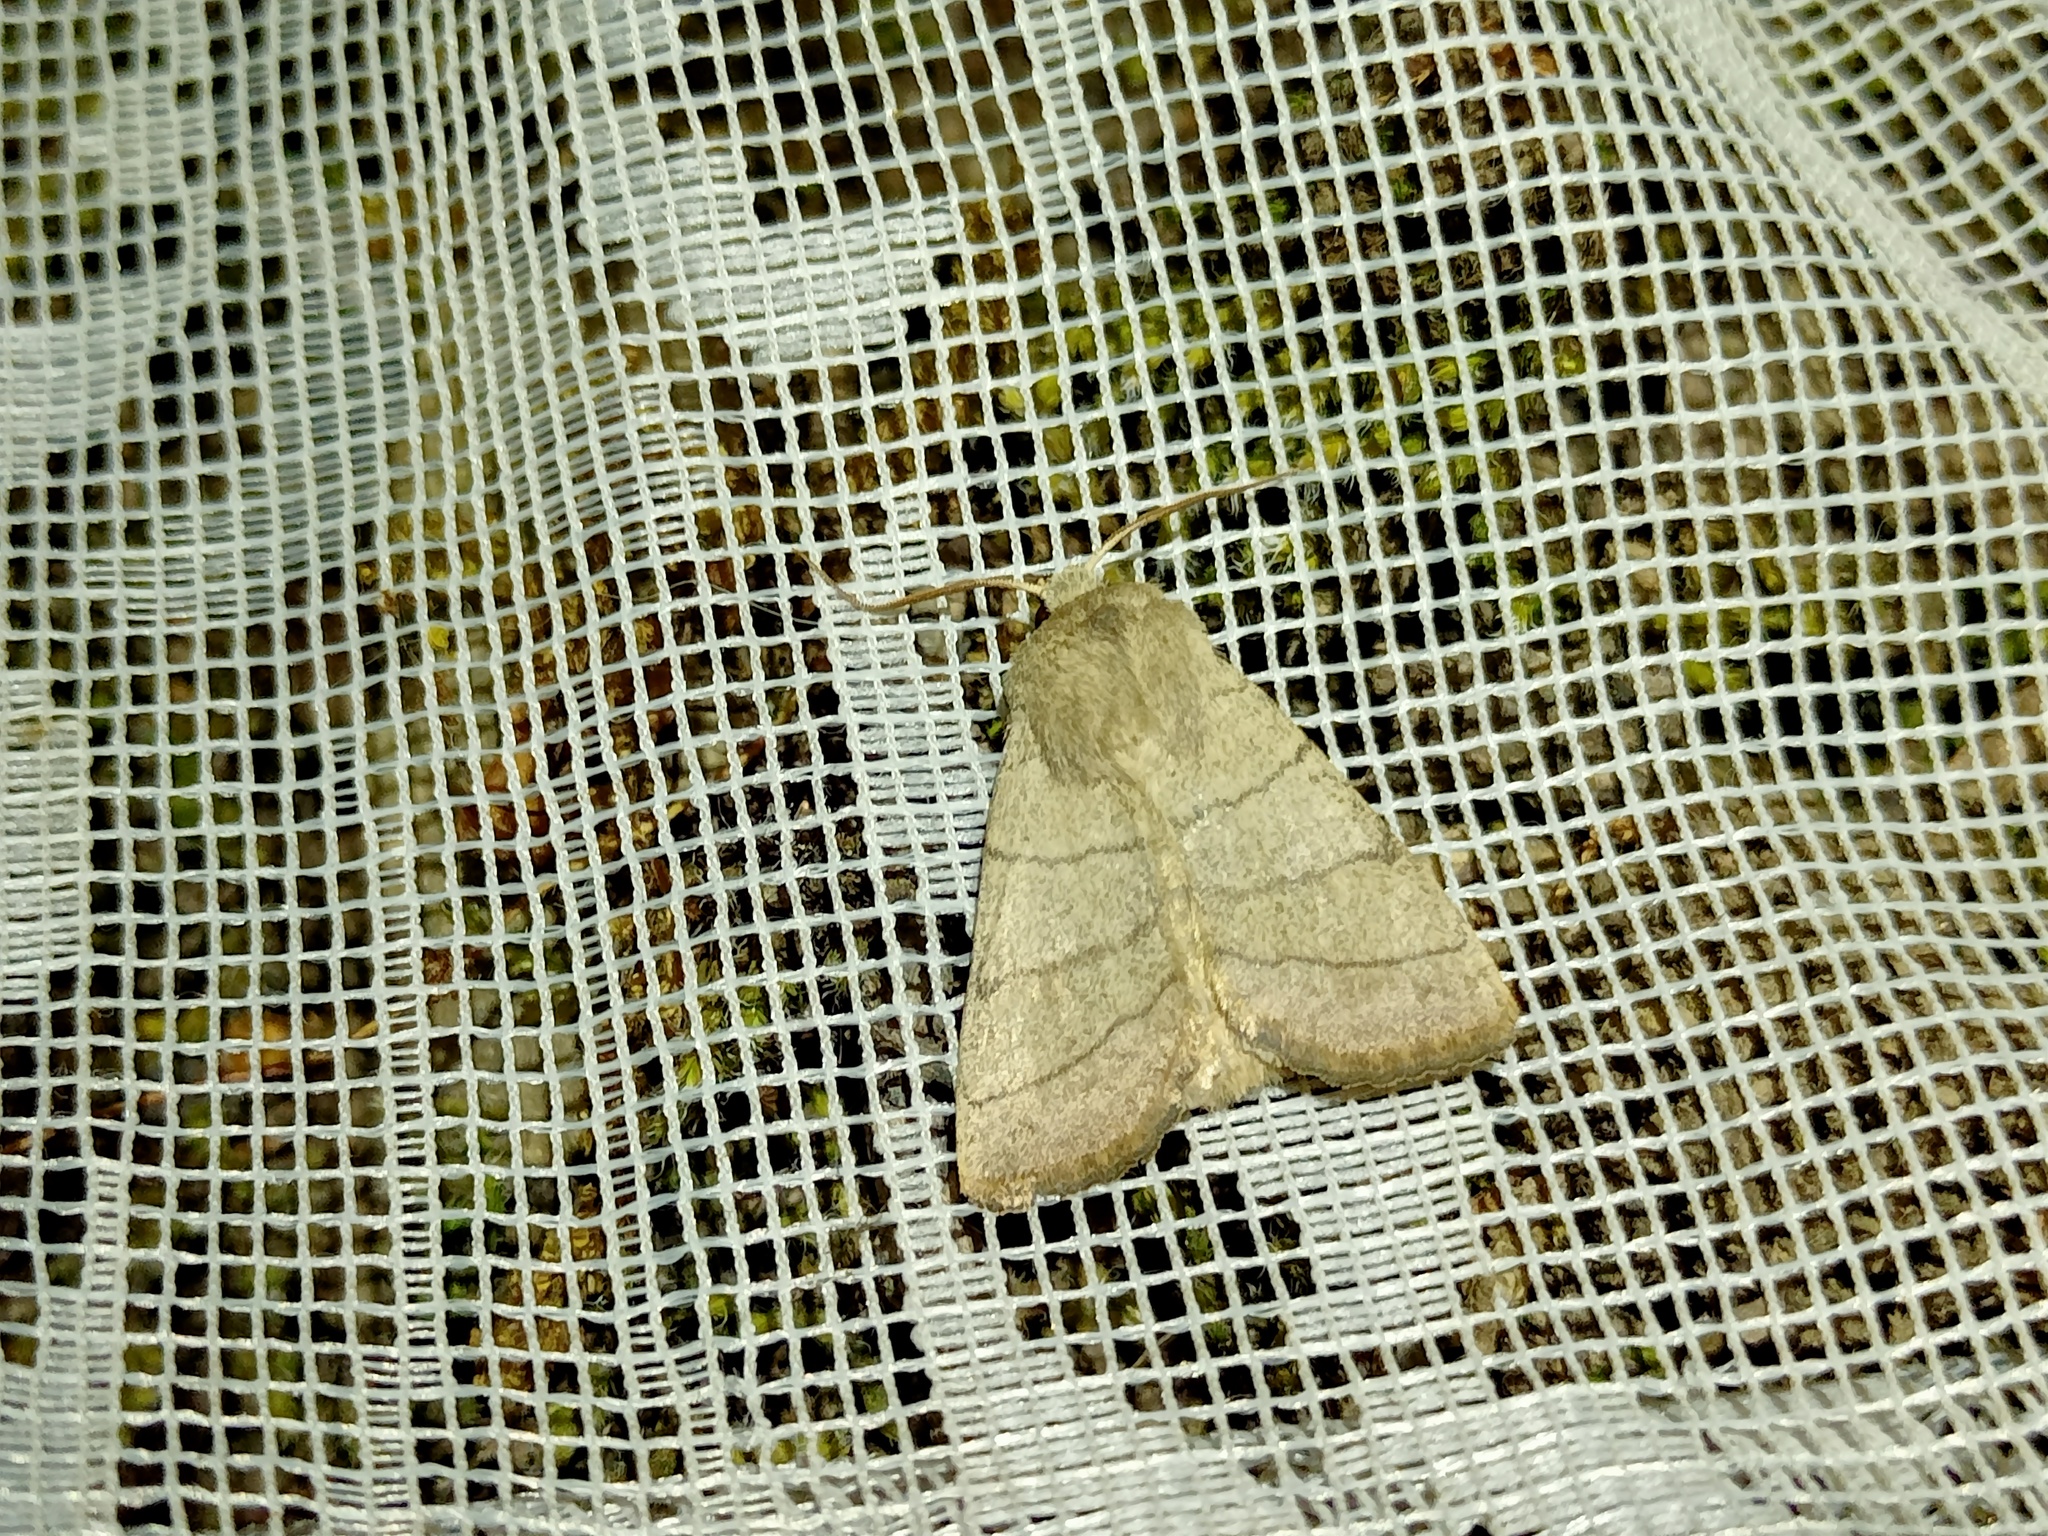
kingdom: Animalia
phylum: Arthropoda
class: Insecta
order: Lepidoptera
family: Noctuidae
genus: Charanyca
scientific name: Charanyca trigrammica
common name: Treble lines
